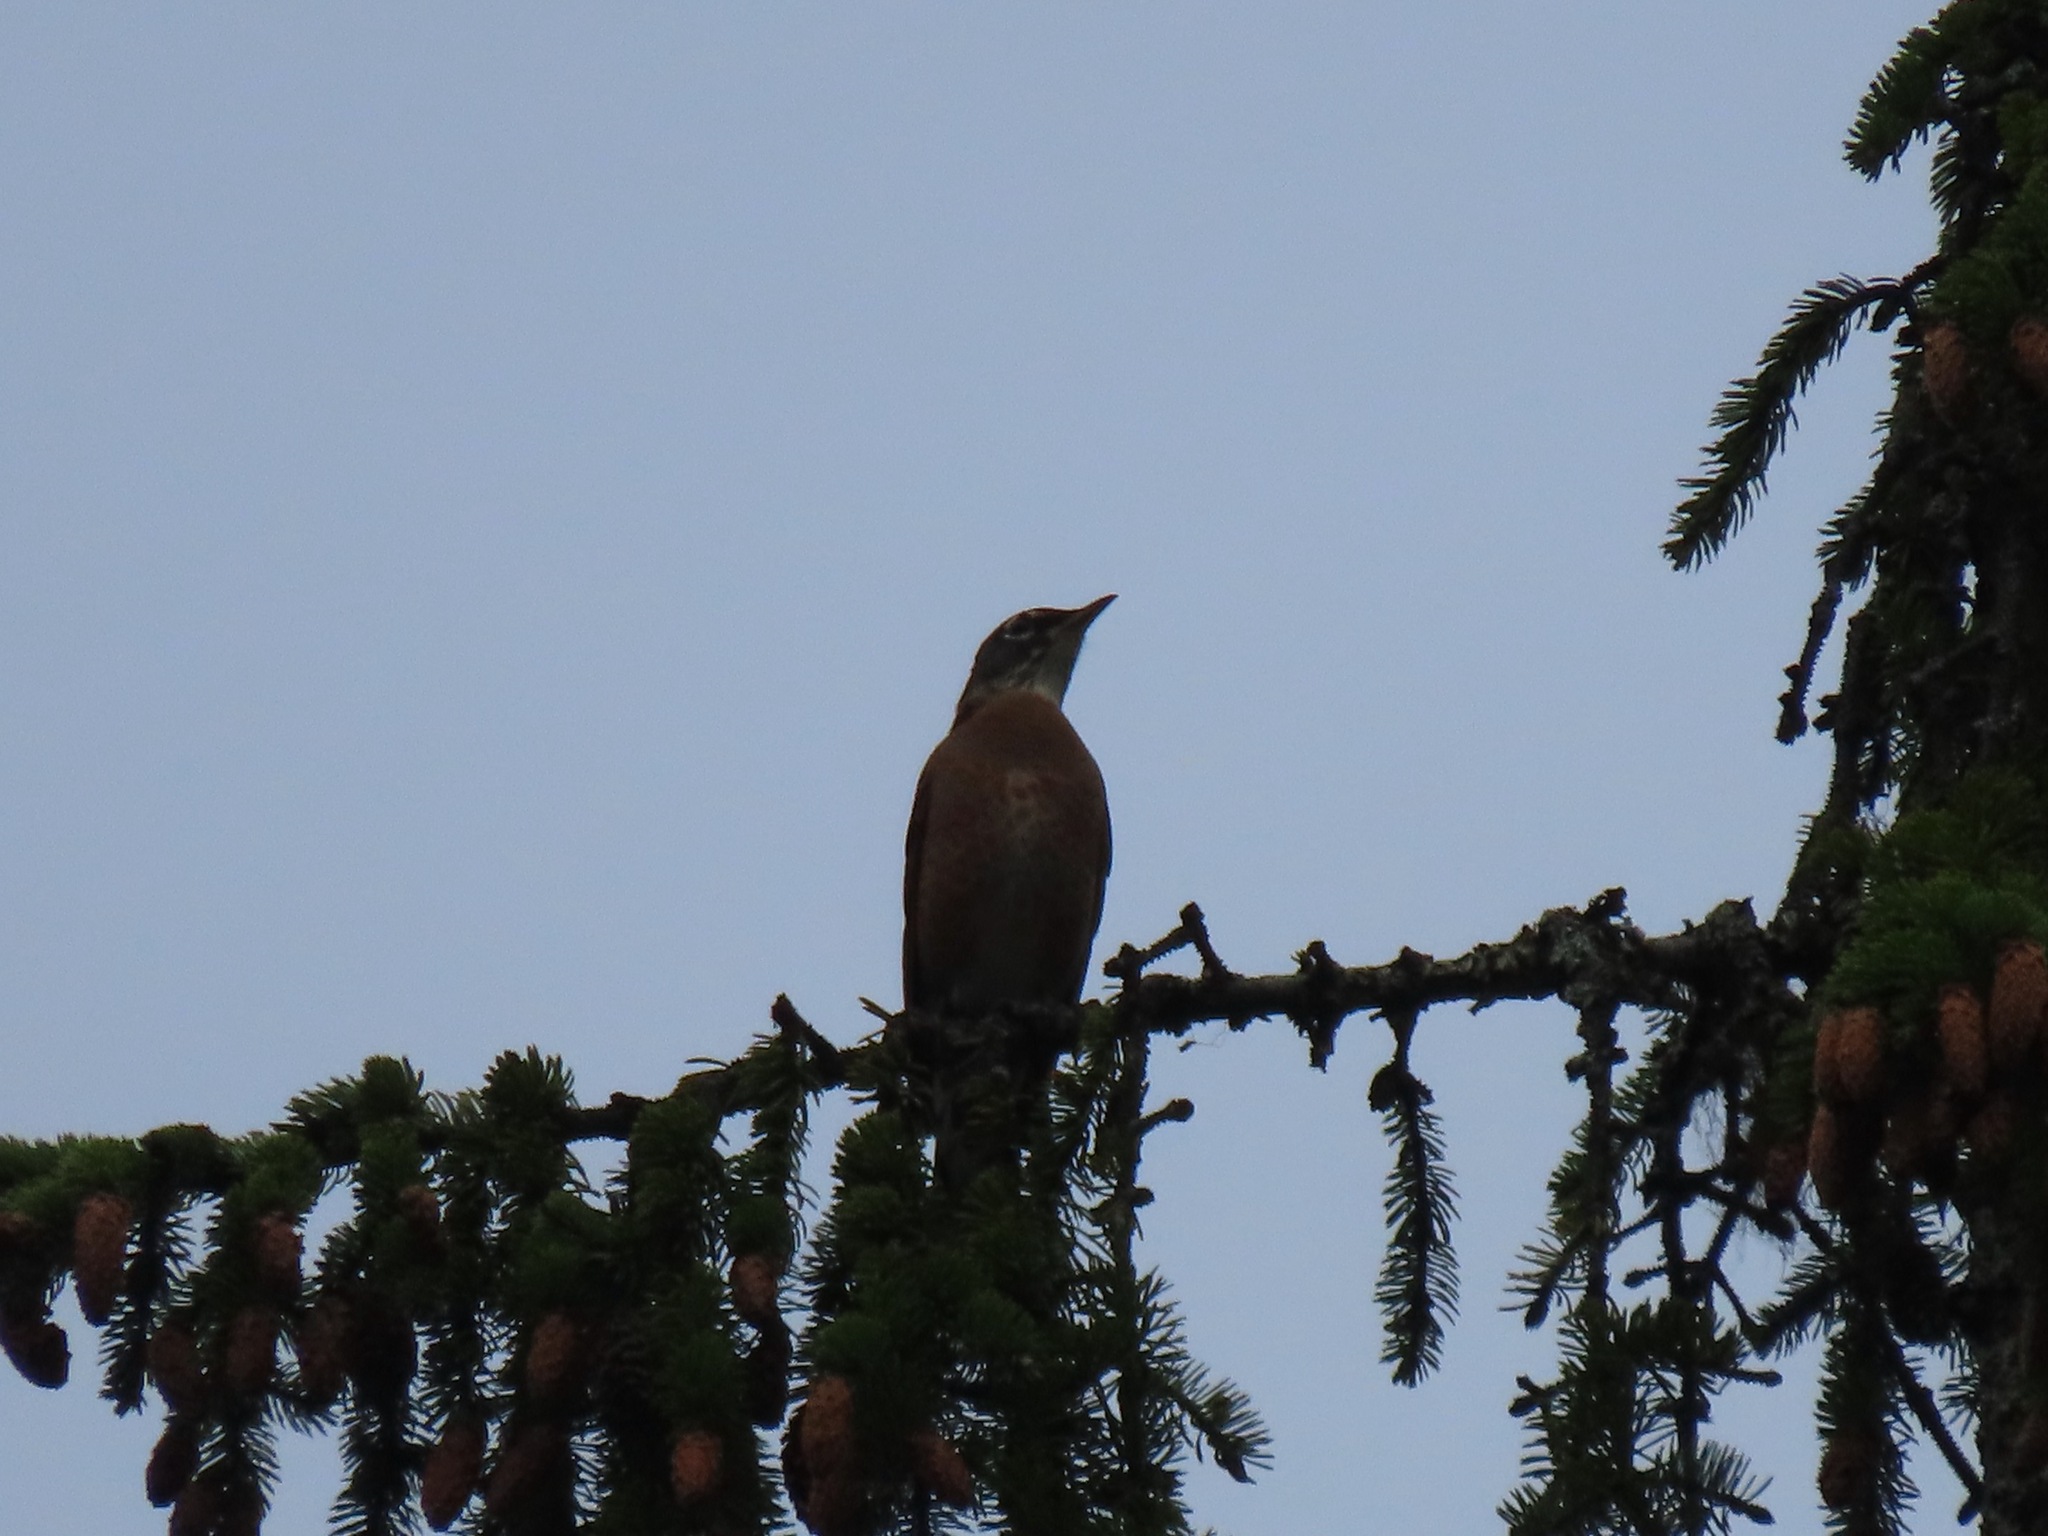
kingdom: Animalia
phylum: Chordata
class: Aves
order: Passeriformes
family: Turdidae
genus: Turdus
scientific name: Turdus migratorius
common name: American robin
